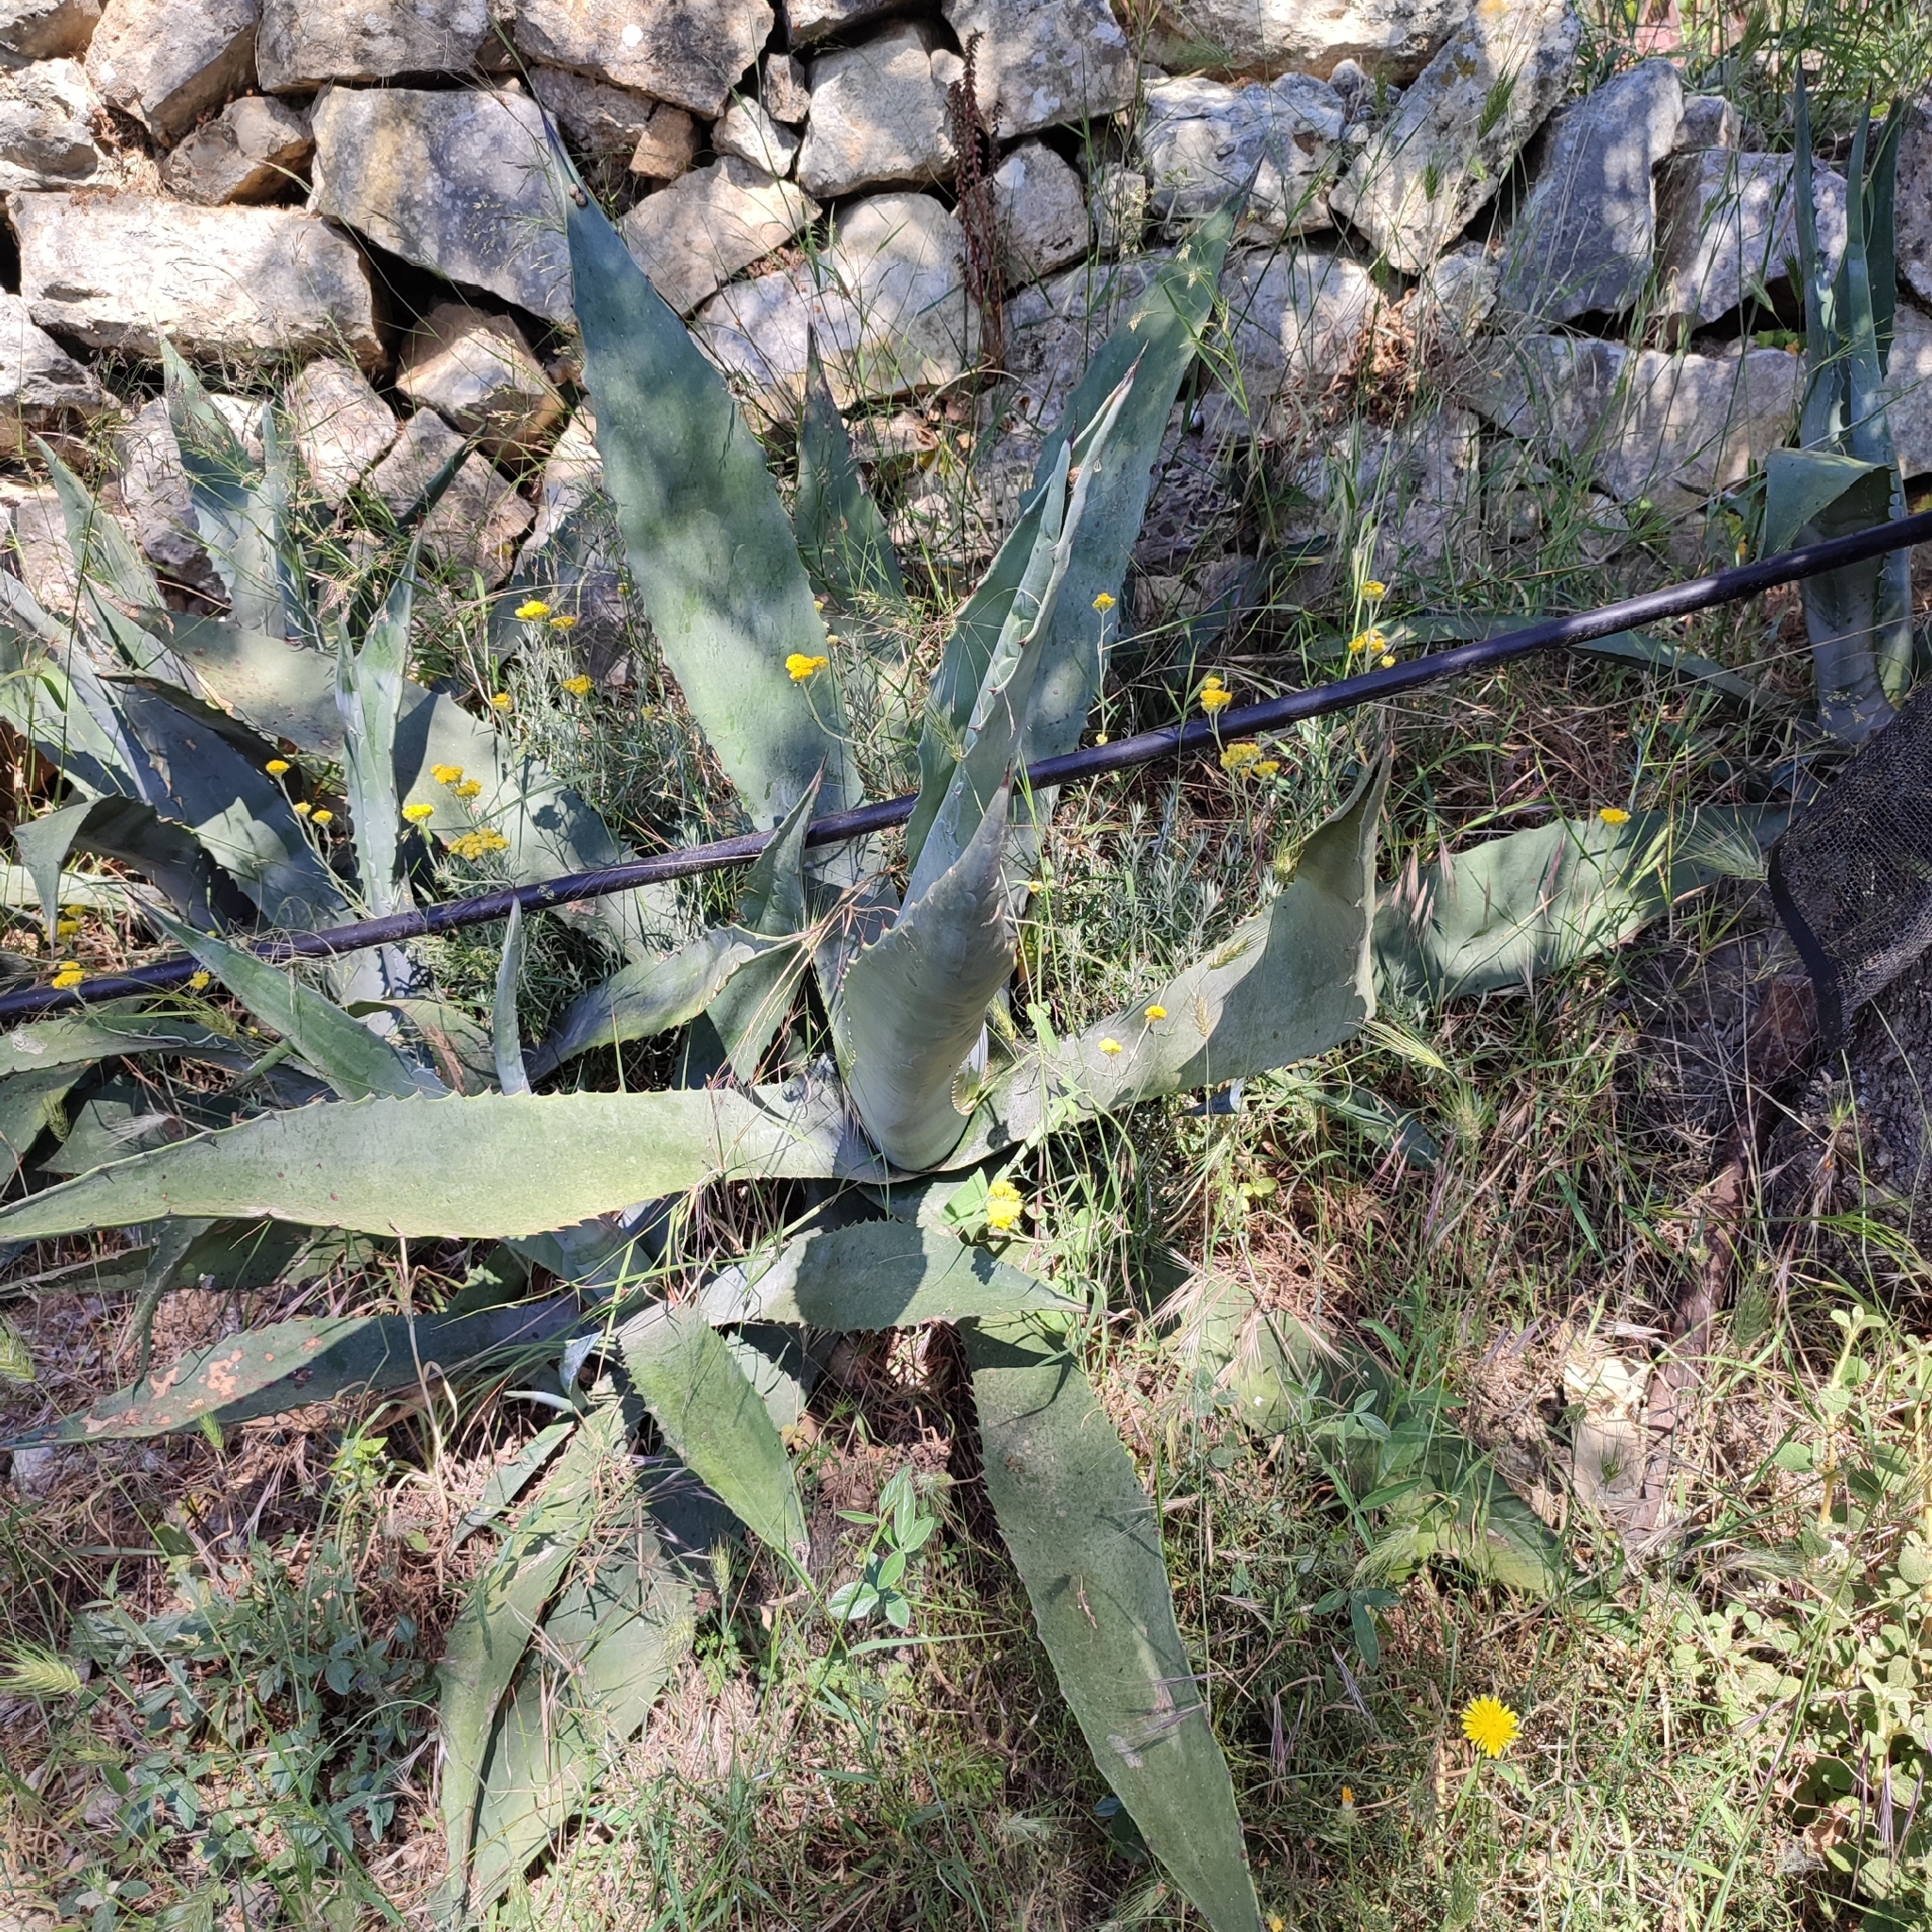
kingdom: Plantae
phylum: Tracheophyta
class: Liliopsida
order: Asparagales
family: Asparagaceae
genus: Agave
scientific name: Agave americana
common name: Centuryplant
